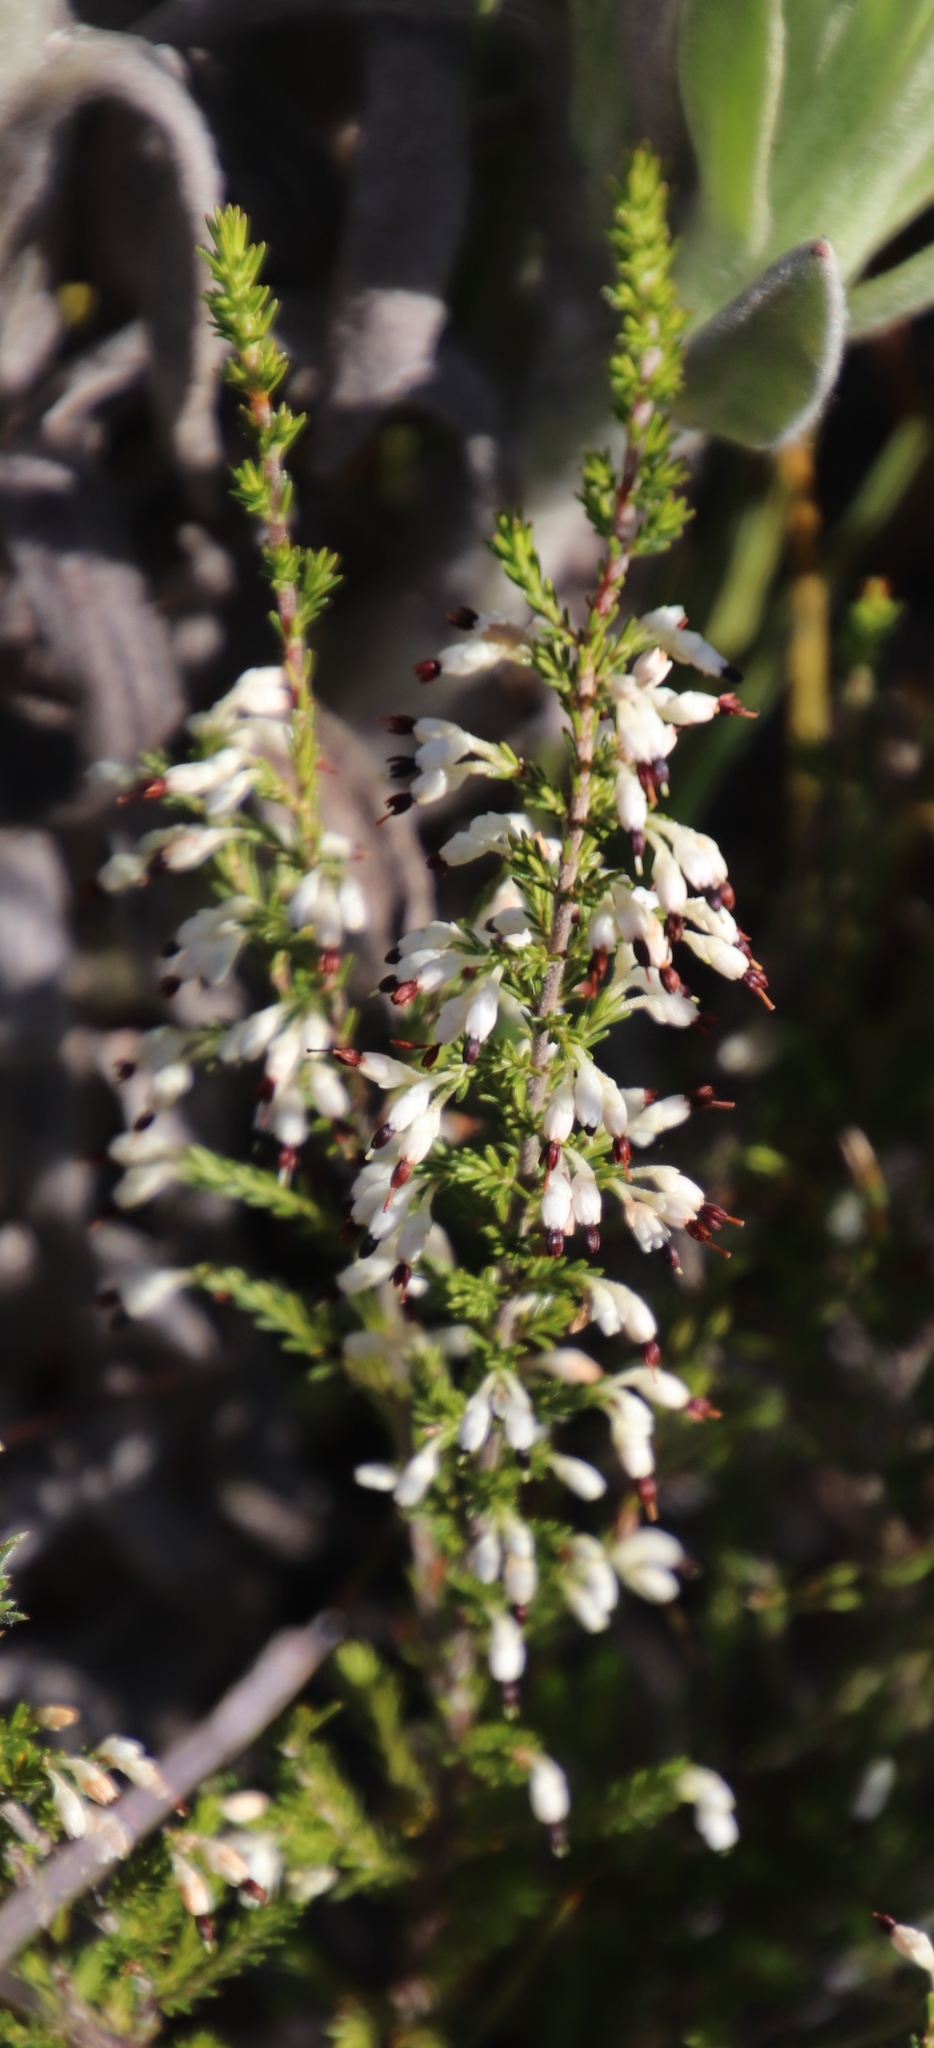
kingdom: Plantae
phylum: Tracheophyta
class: Magnoliopsida
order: Ericales
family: Ericaceae
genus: Erica
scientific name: Erica imbricata
